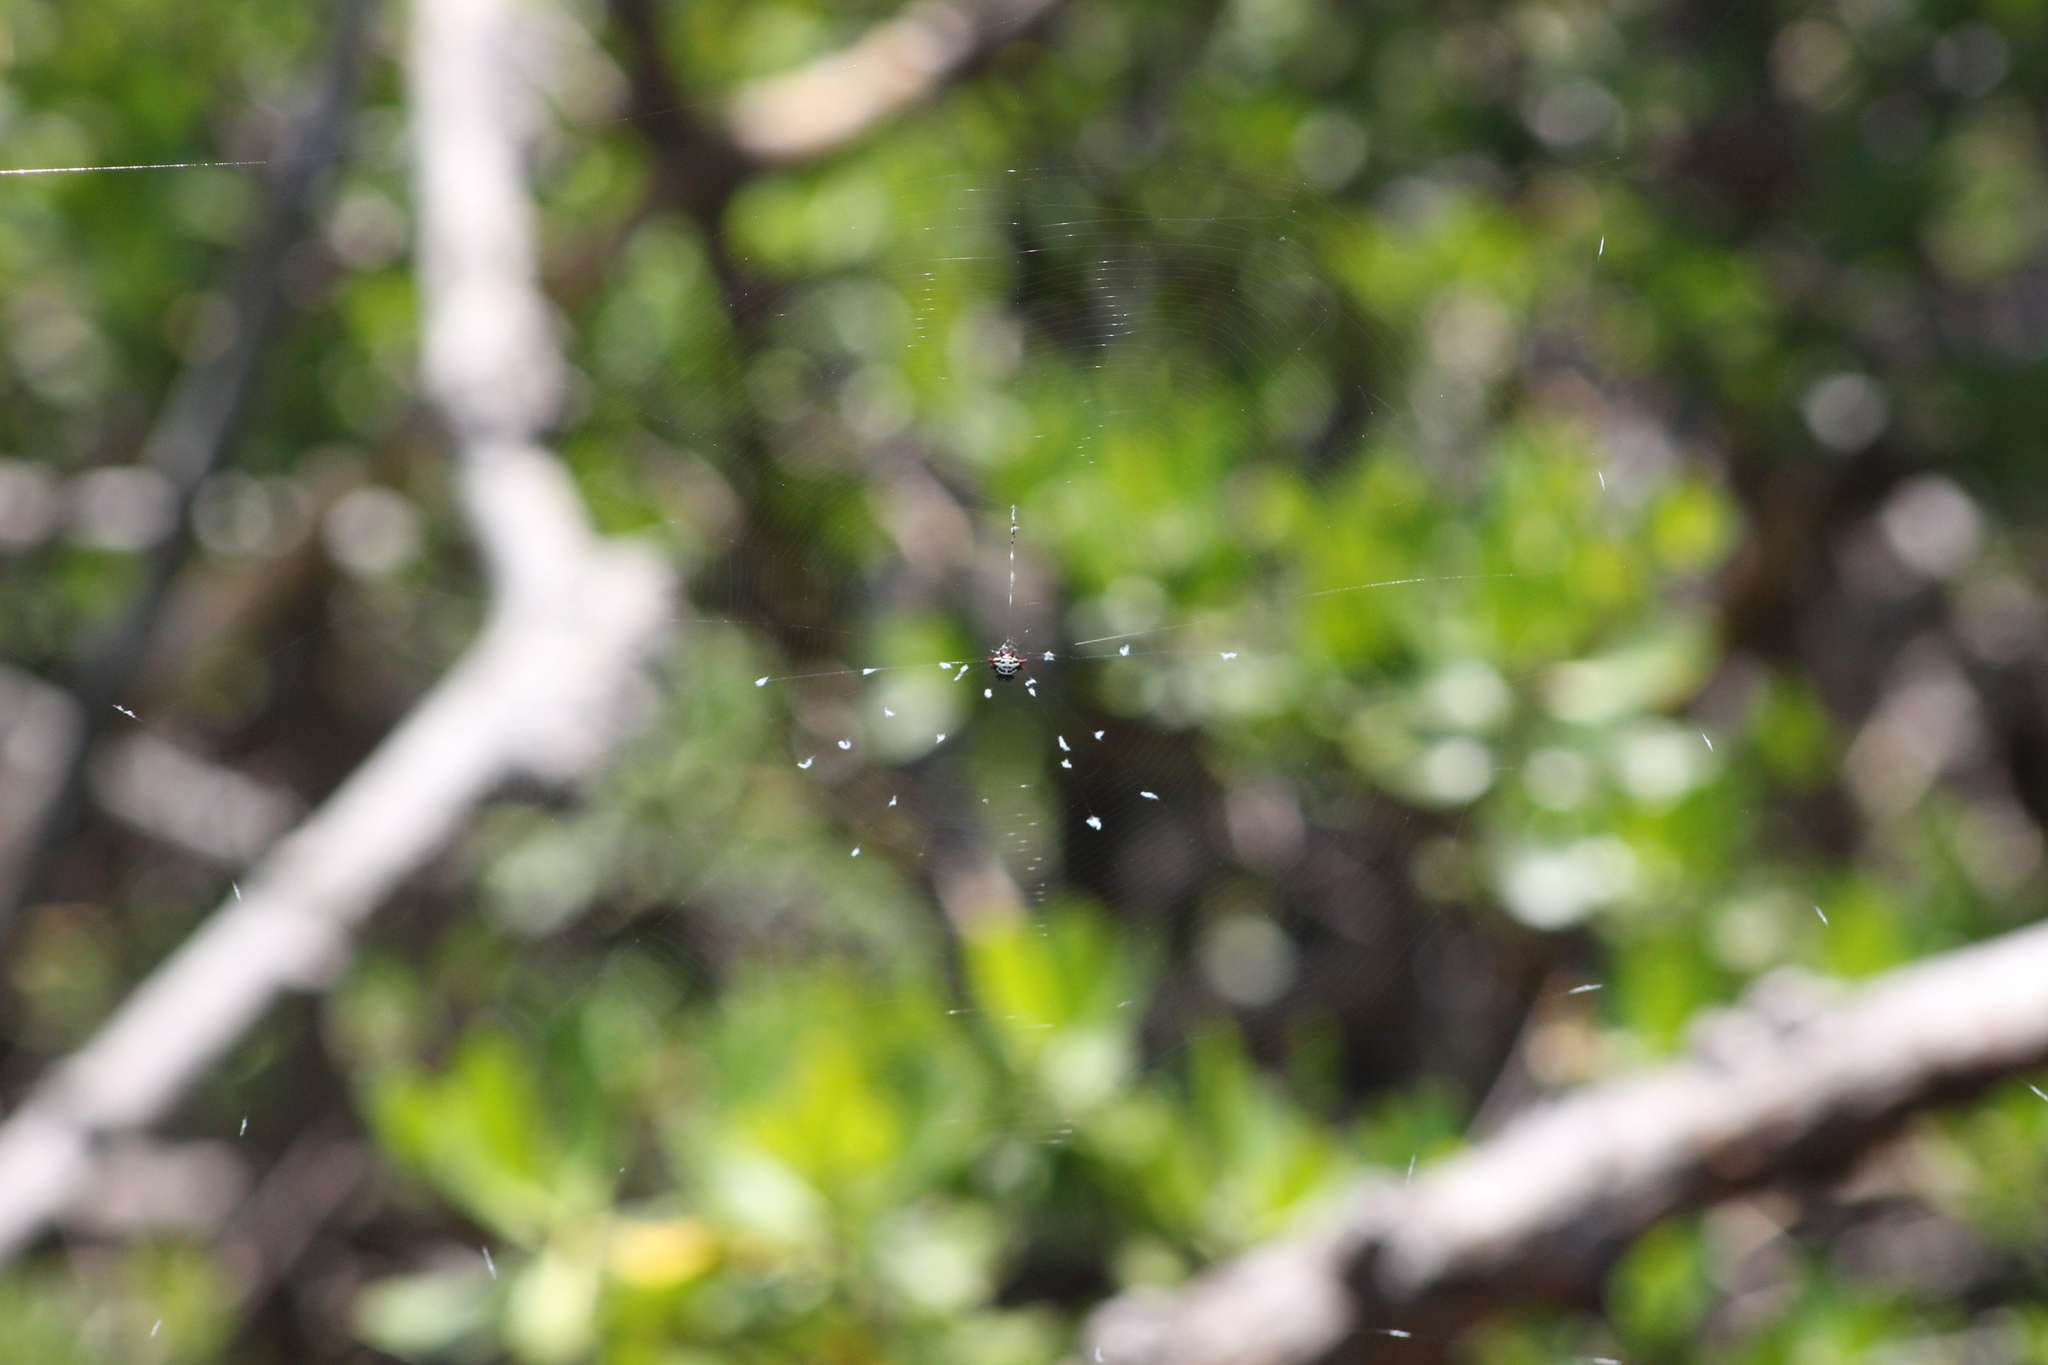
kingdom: Animalia
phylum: Arthropoda
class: Arachnida
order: Araneae
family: Araneidae
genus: Gasteracantha
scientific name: Gasteracantha cancriformis
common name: Orb weavers
